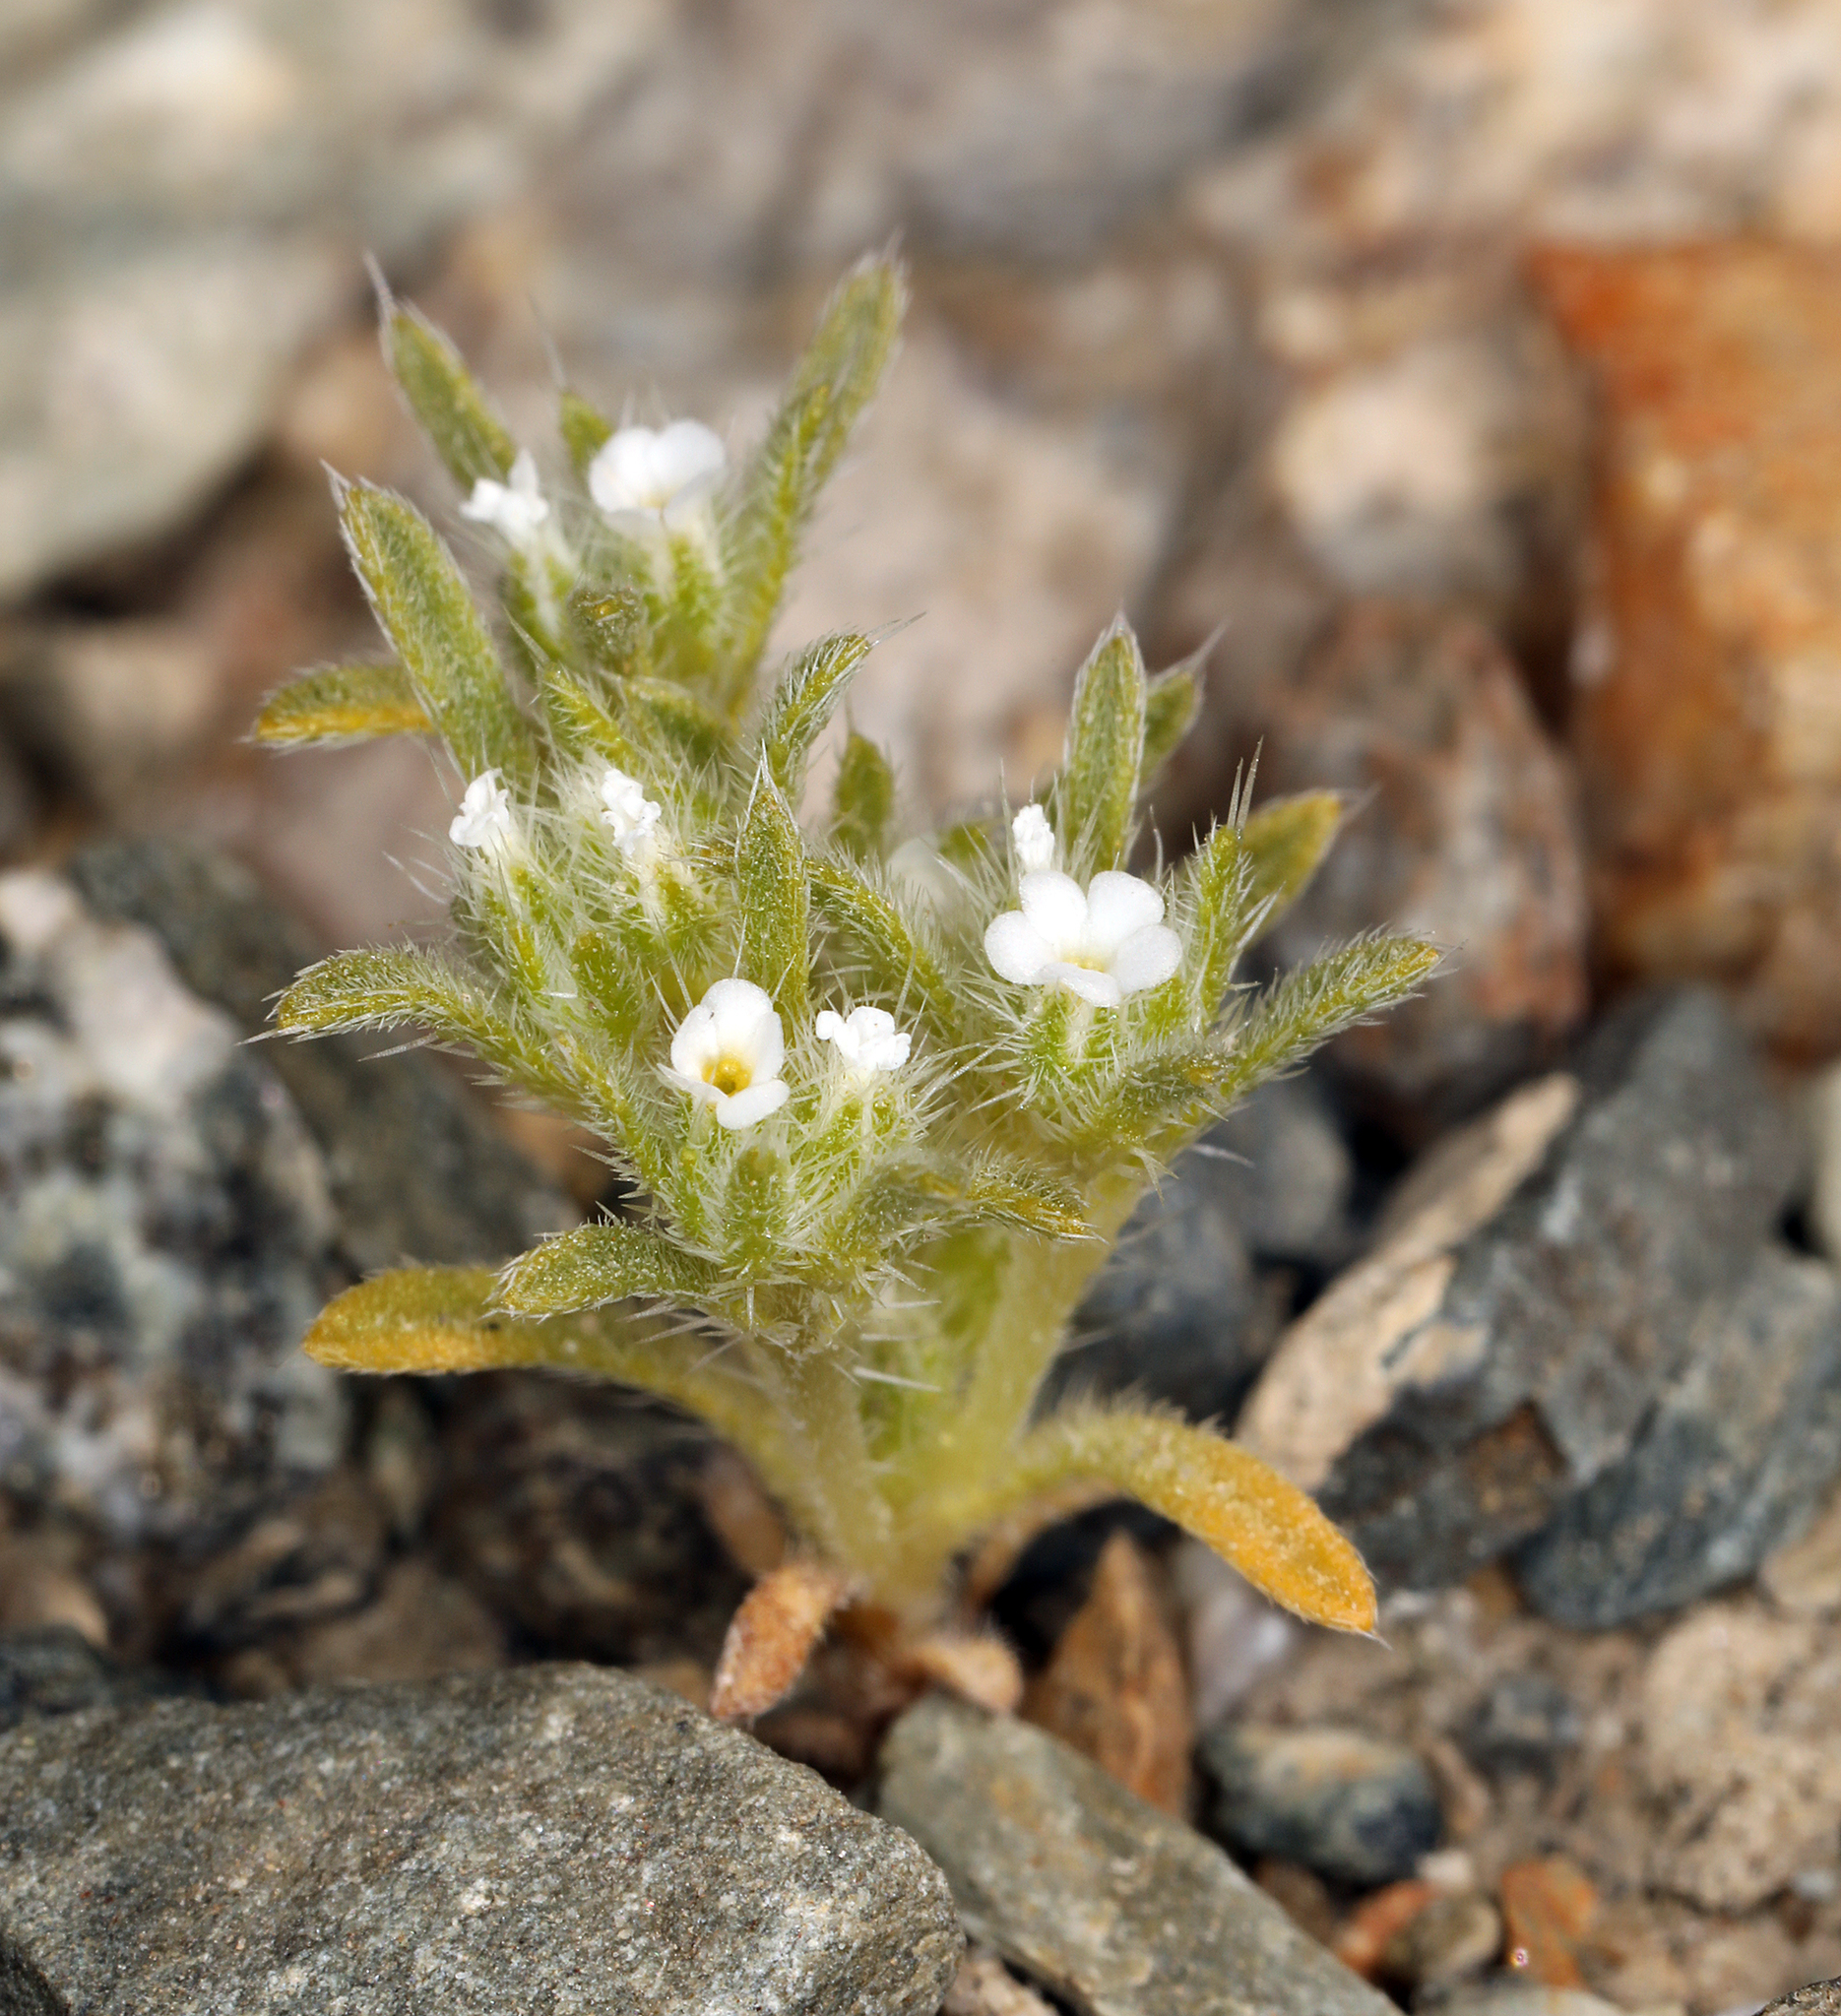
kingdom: Plantae
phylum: Tracheophyta
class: Magnoliopsida
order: Boraginales
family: Boraginaceae
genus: Greeneocharis
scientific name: Greeneocharis circumscissa
